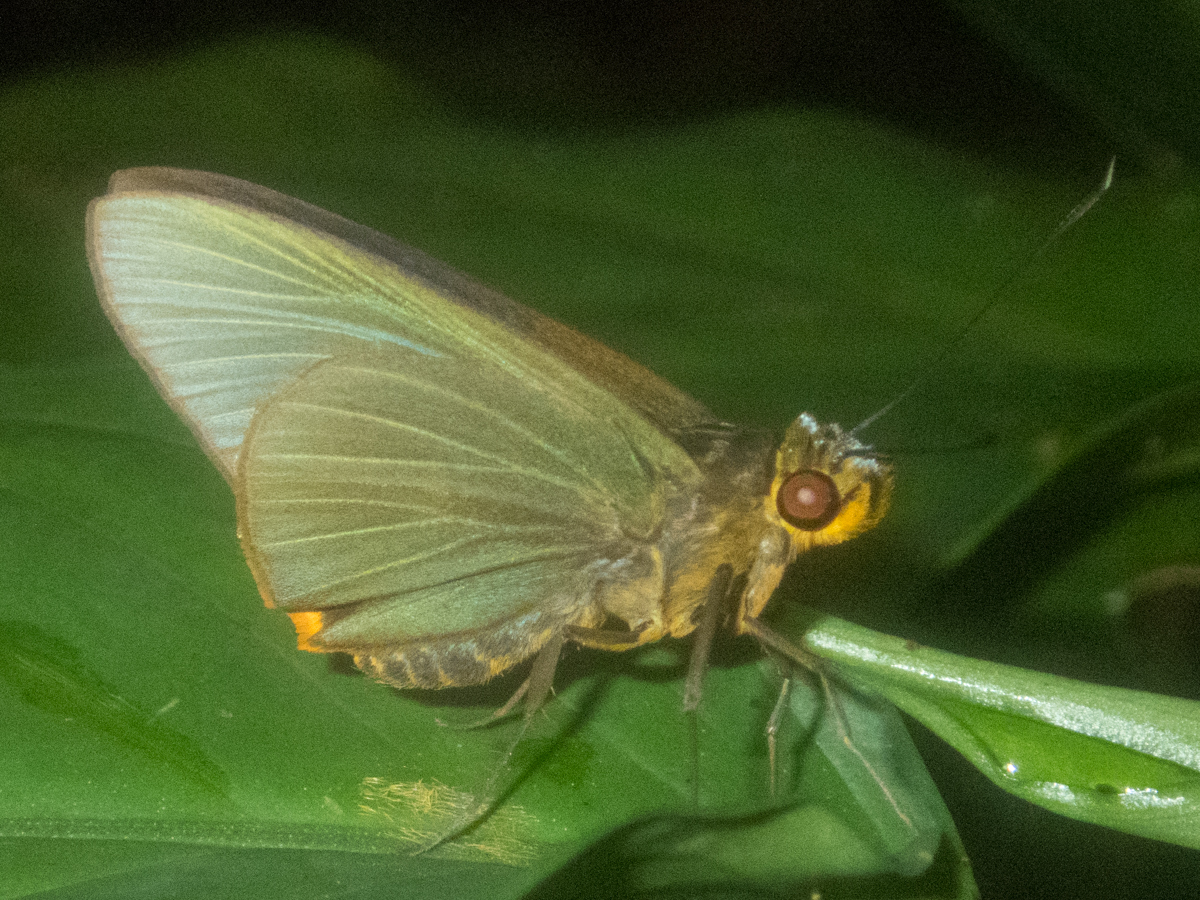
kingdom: Animalia
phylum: Arthropoda
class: Insecta
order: Lepidoptera
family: Hesperiidae
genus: Pirdana
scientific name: Pirdana distanti
